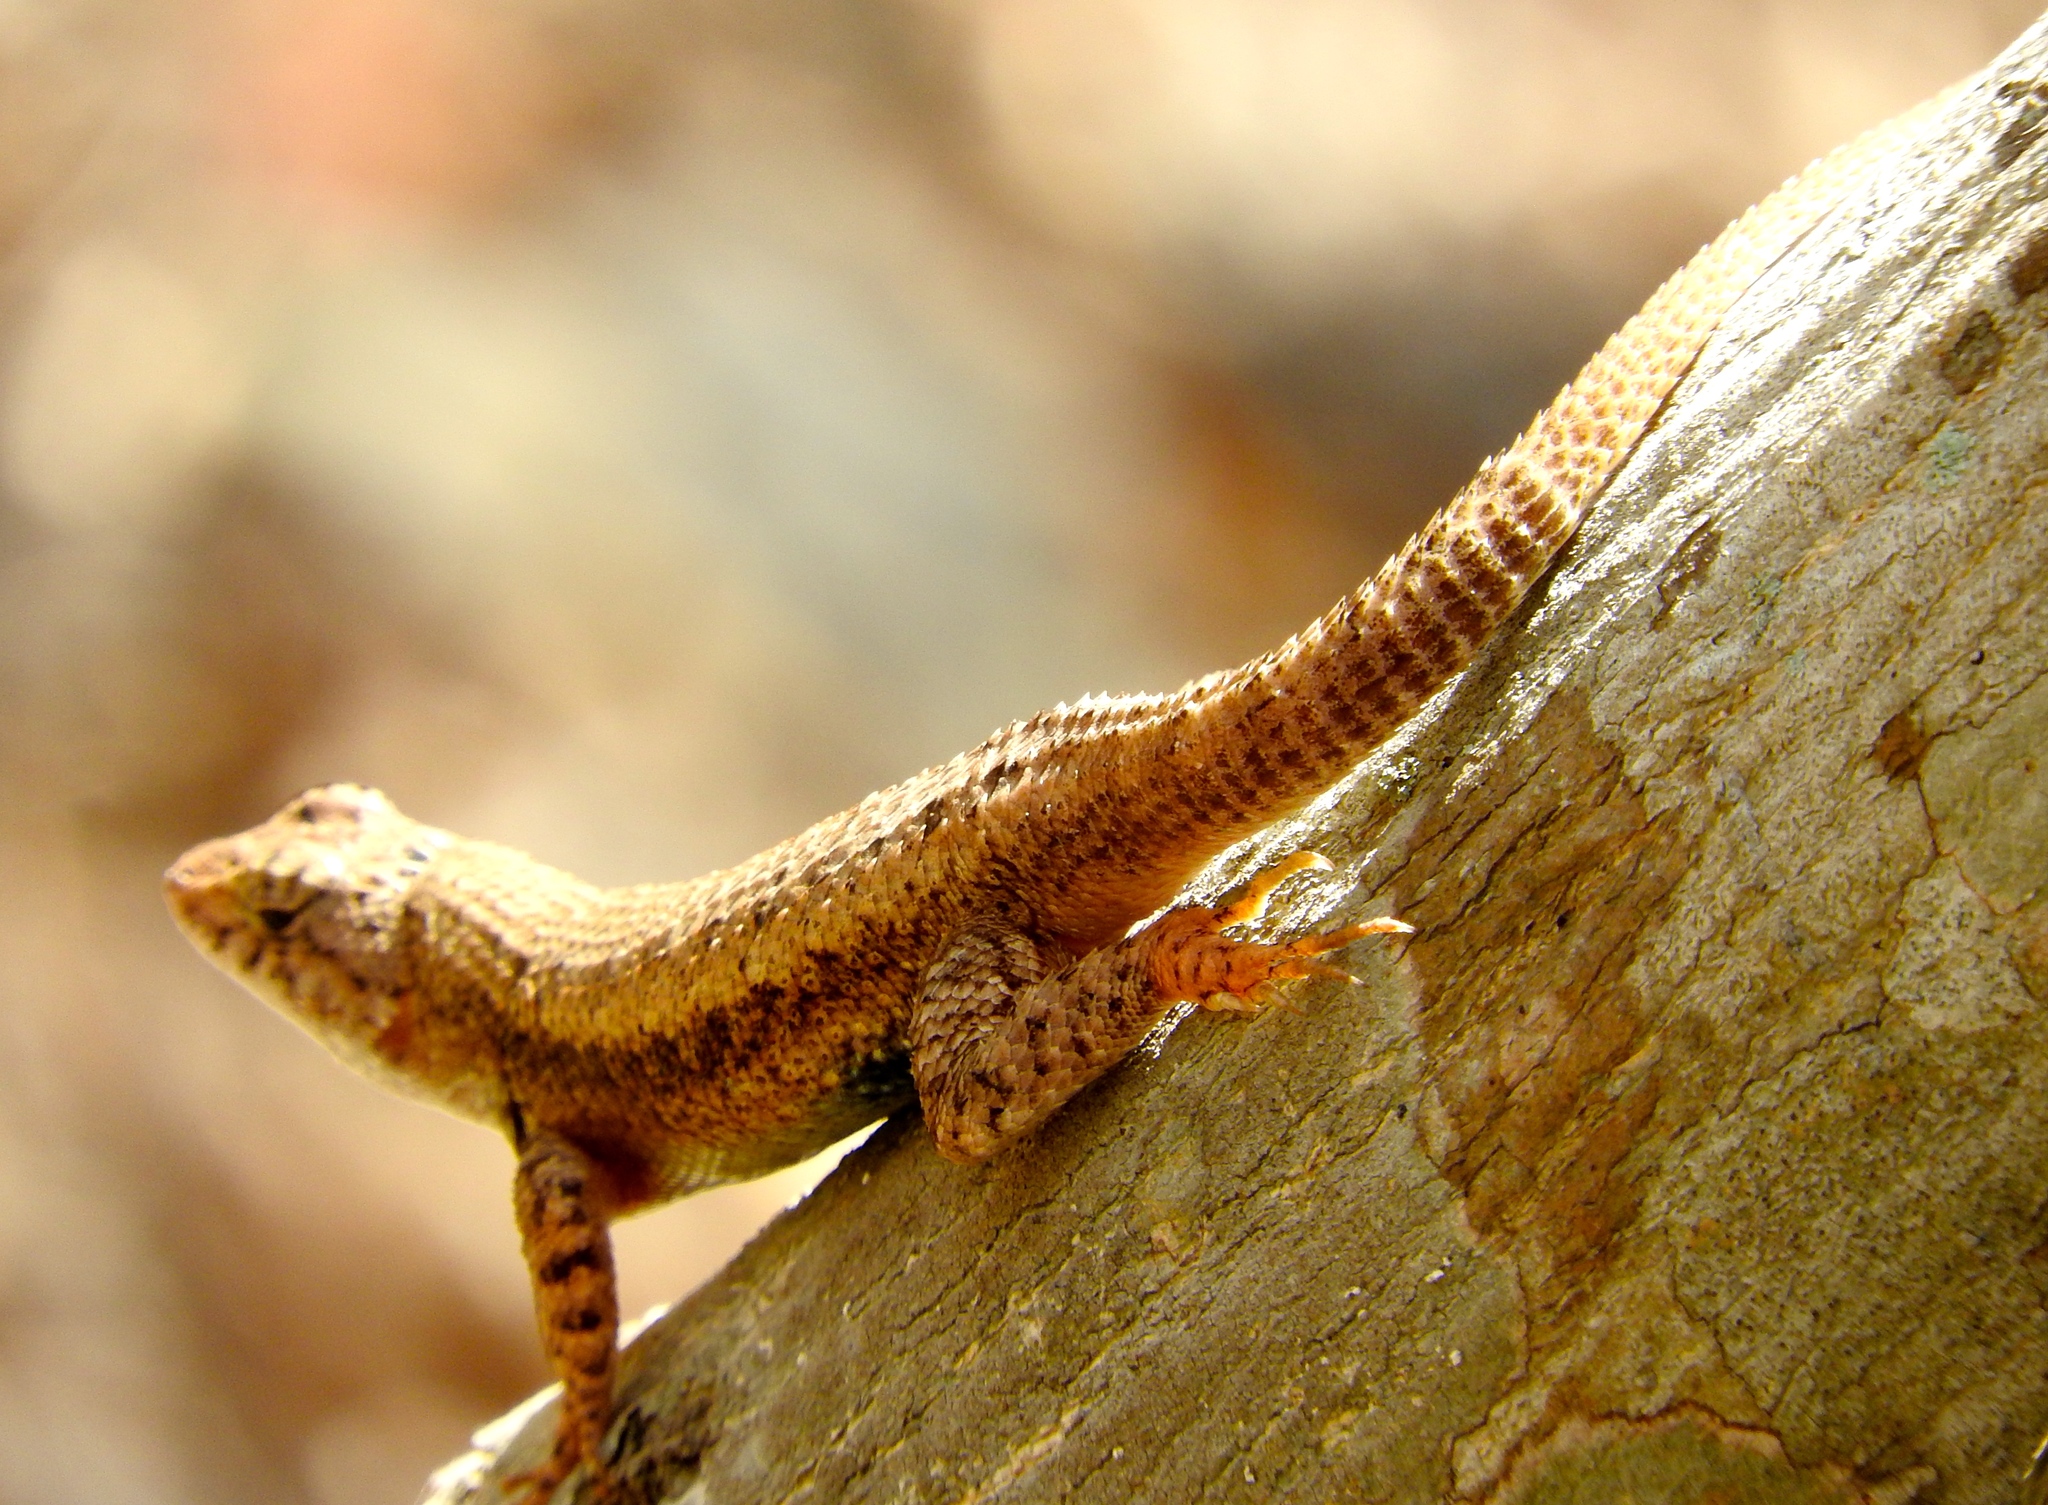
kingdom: Animalia
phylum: Chordata
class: Squamata
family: Phrynosomatidae
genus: Sceloporus
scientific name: Sceloporus nelsoni
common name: Nelson's spiny lizard
